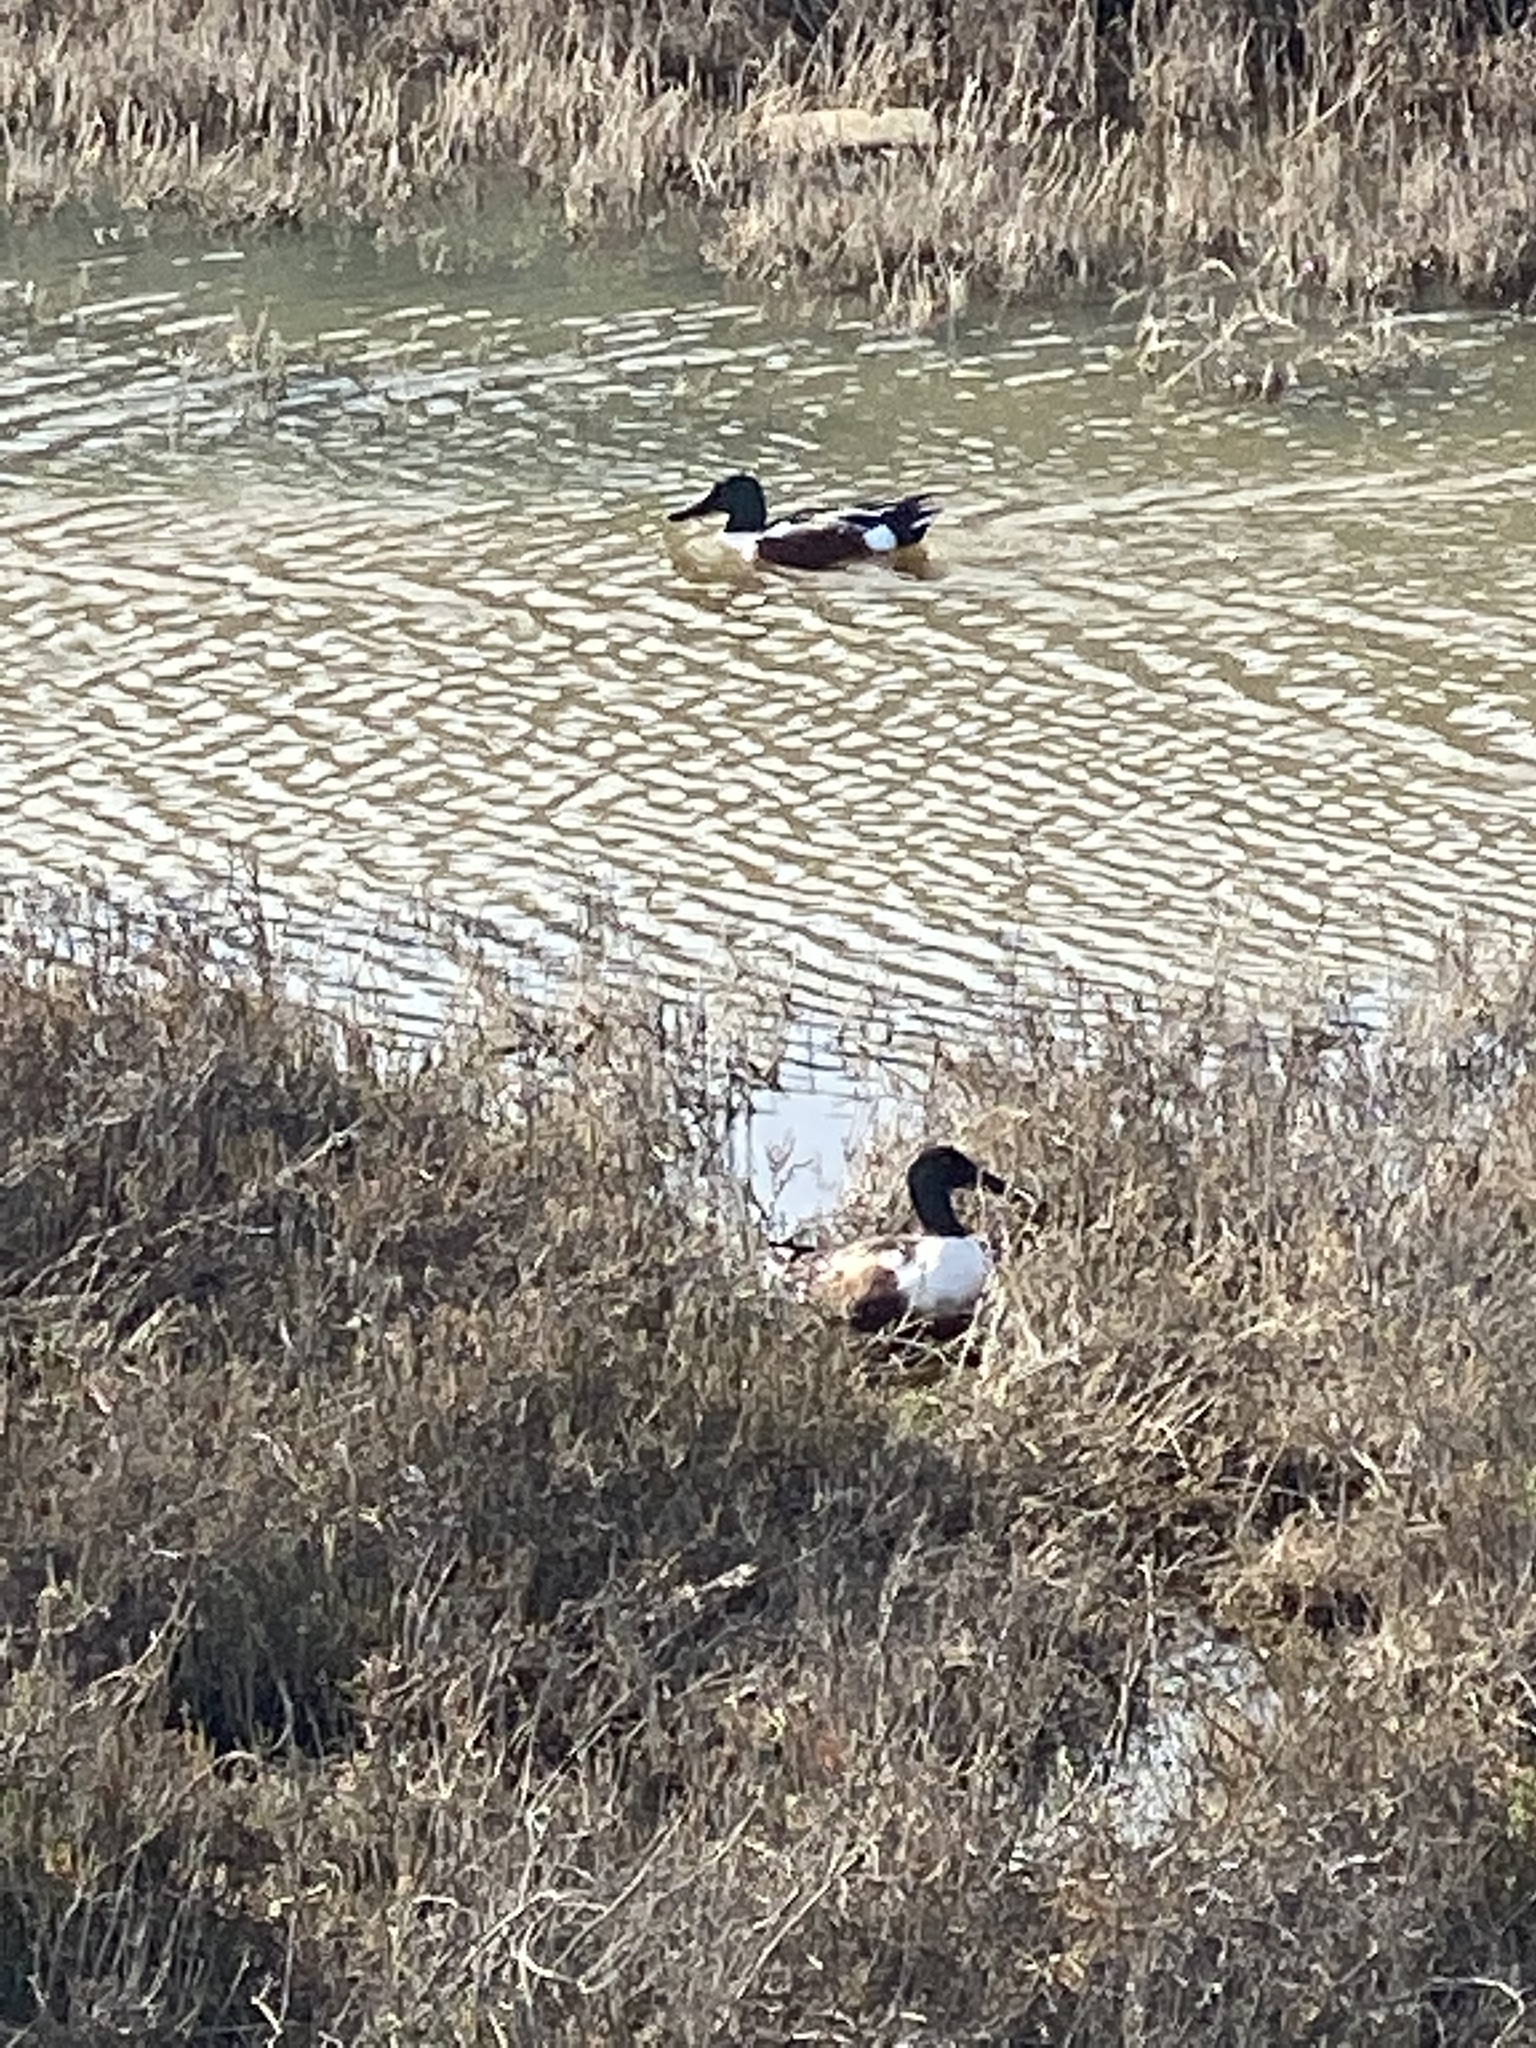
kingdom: Animalia
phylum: Chordata
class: Aves
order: Anseriformes
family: Anatidae
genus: Spatula
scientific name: Spatula clypeata
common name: Northern shoveler
